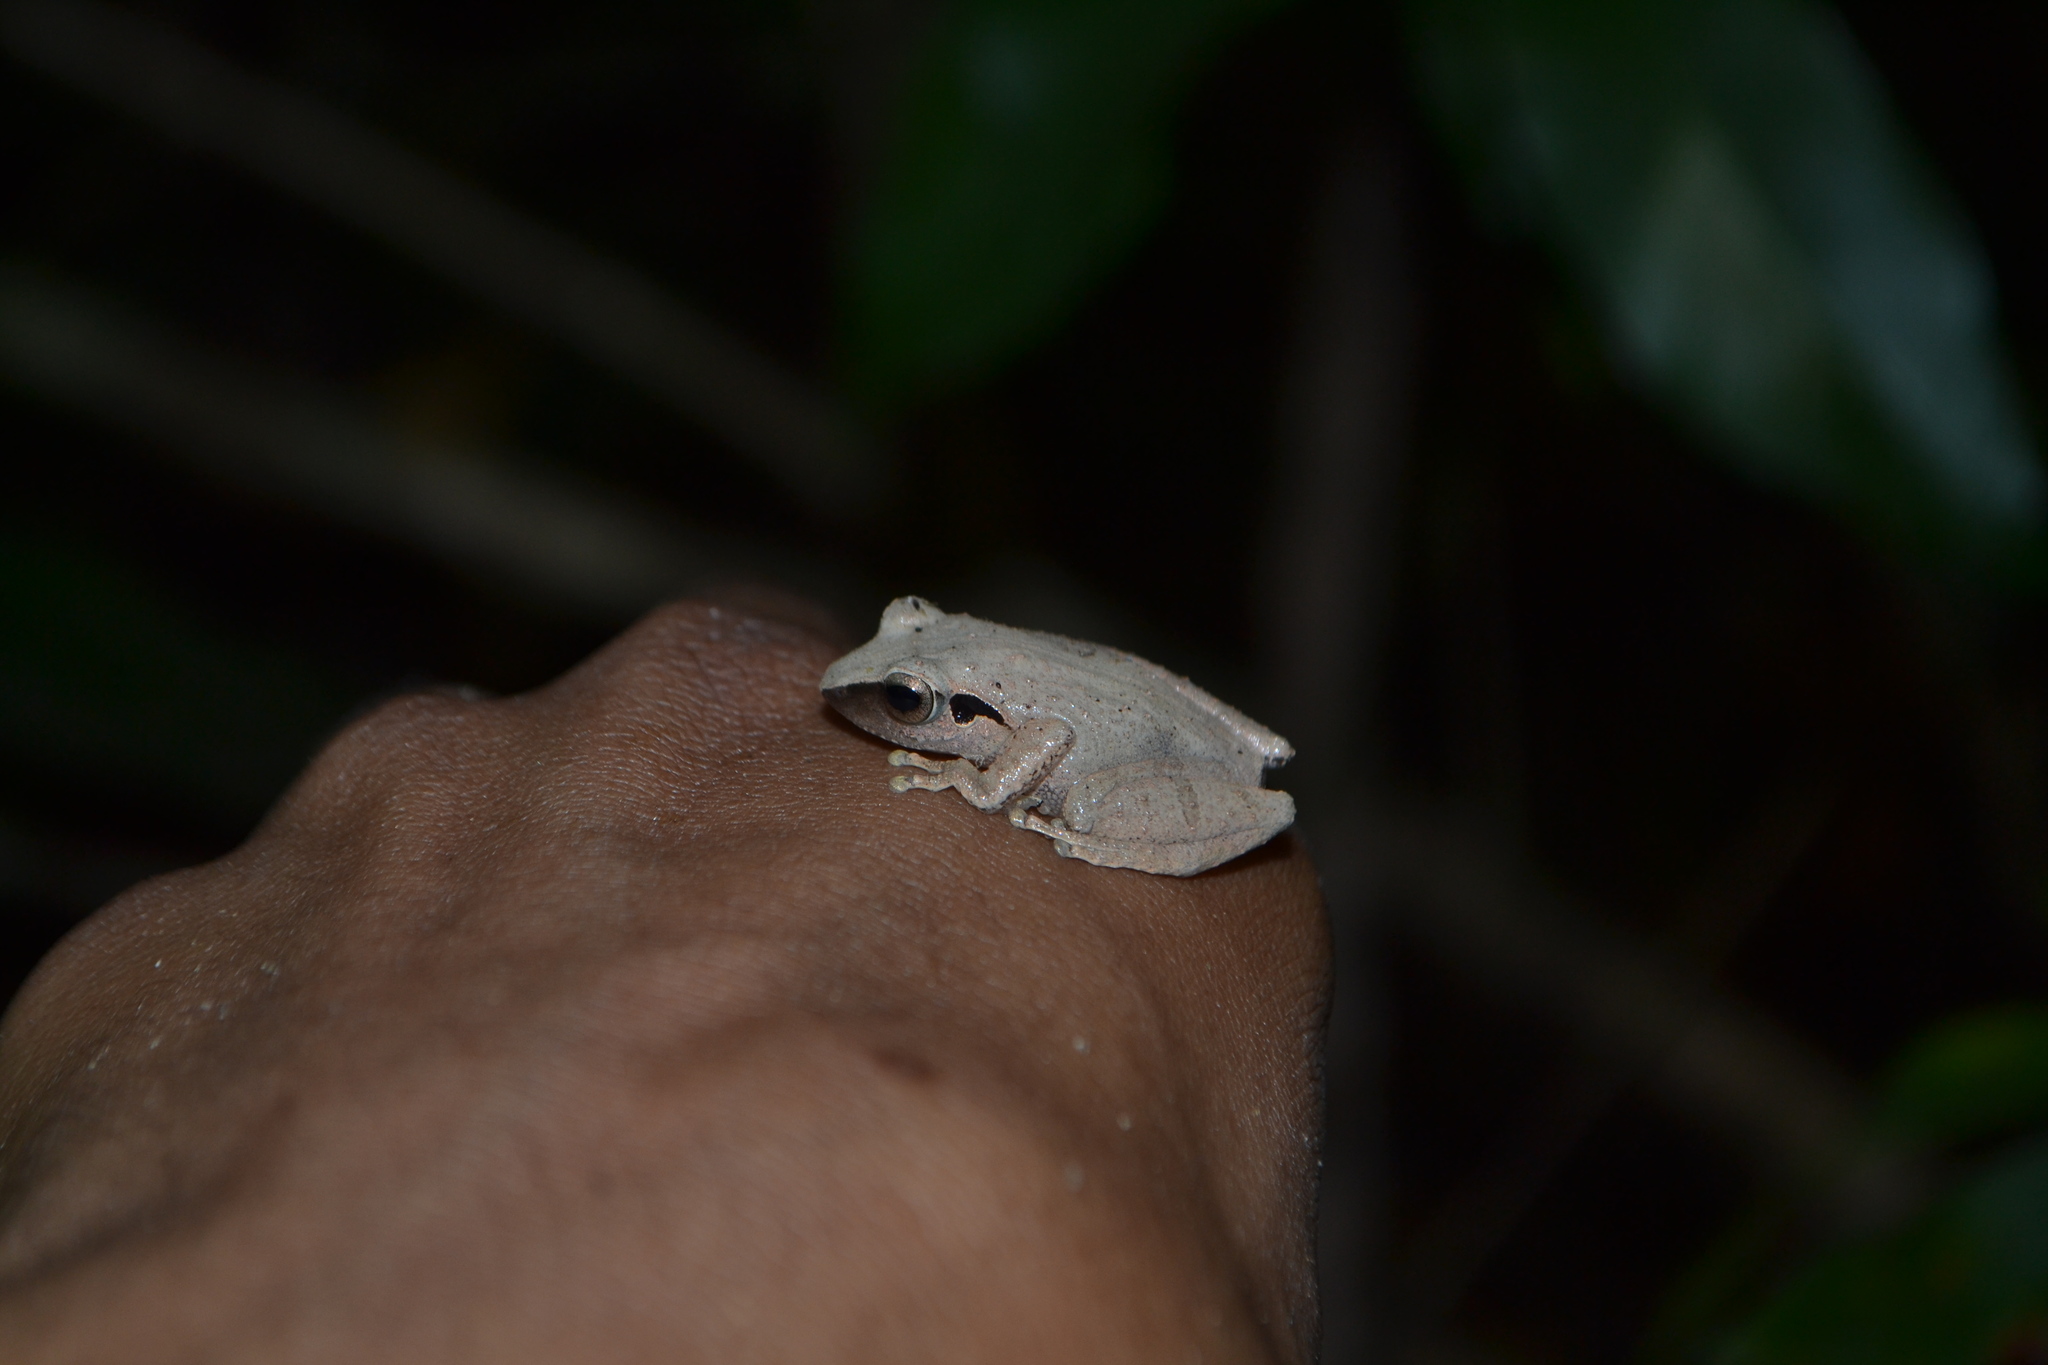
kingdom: Animalia
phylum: Chordata
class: Amphibia
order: Anura
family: Rhacophoridae
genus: Pseudophilautus
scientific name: Pseudophilautus wynaadensis
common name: Dark-eared bush frog
